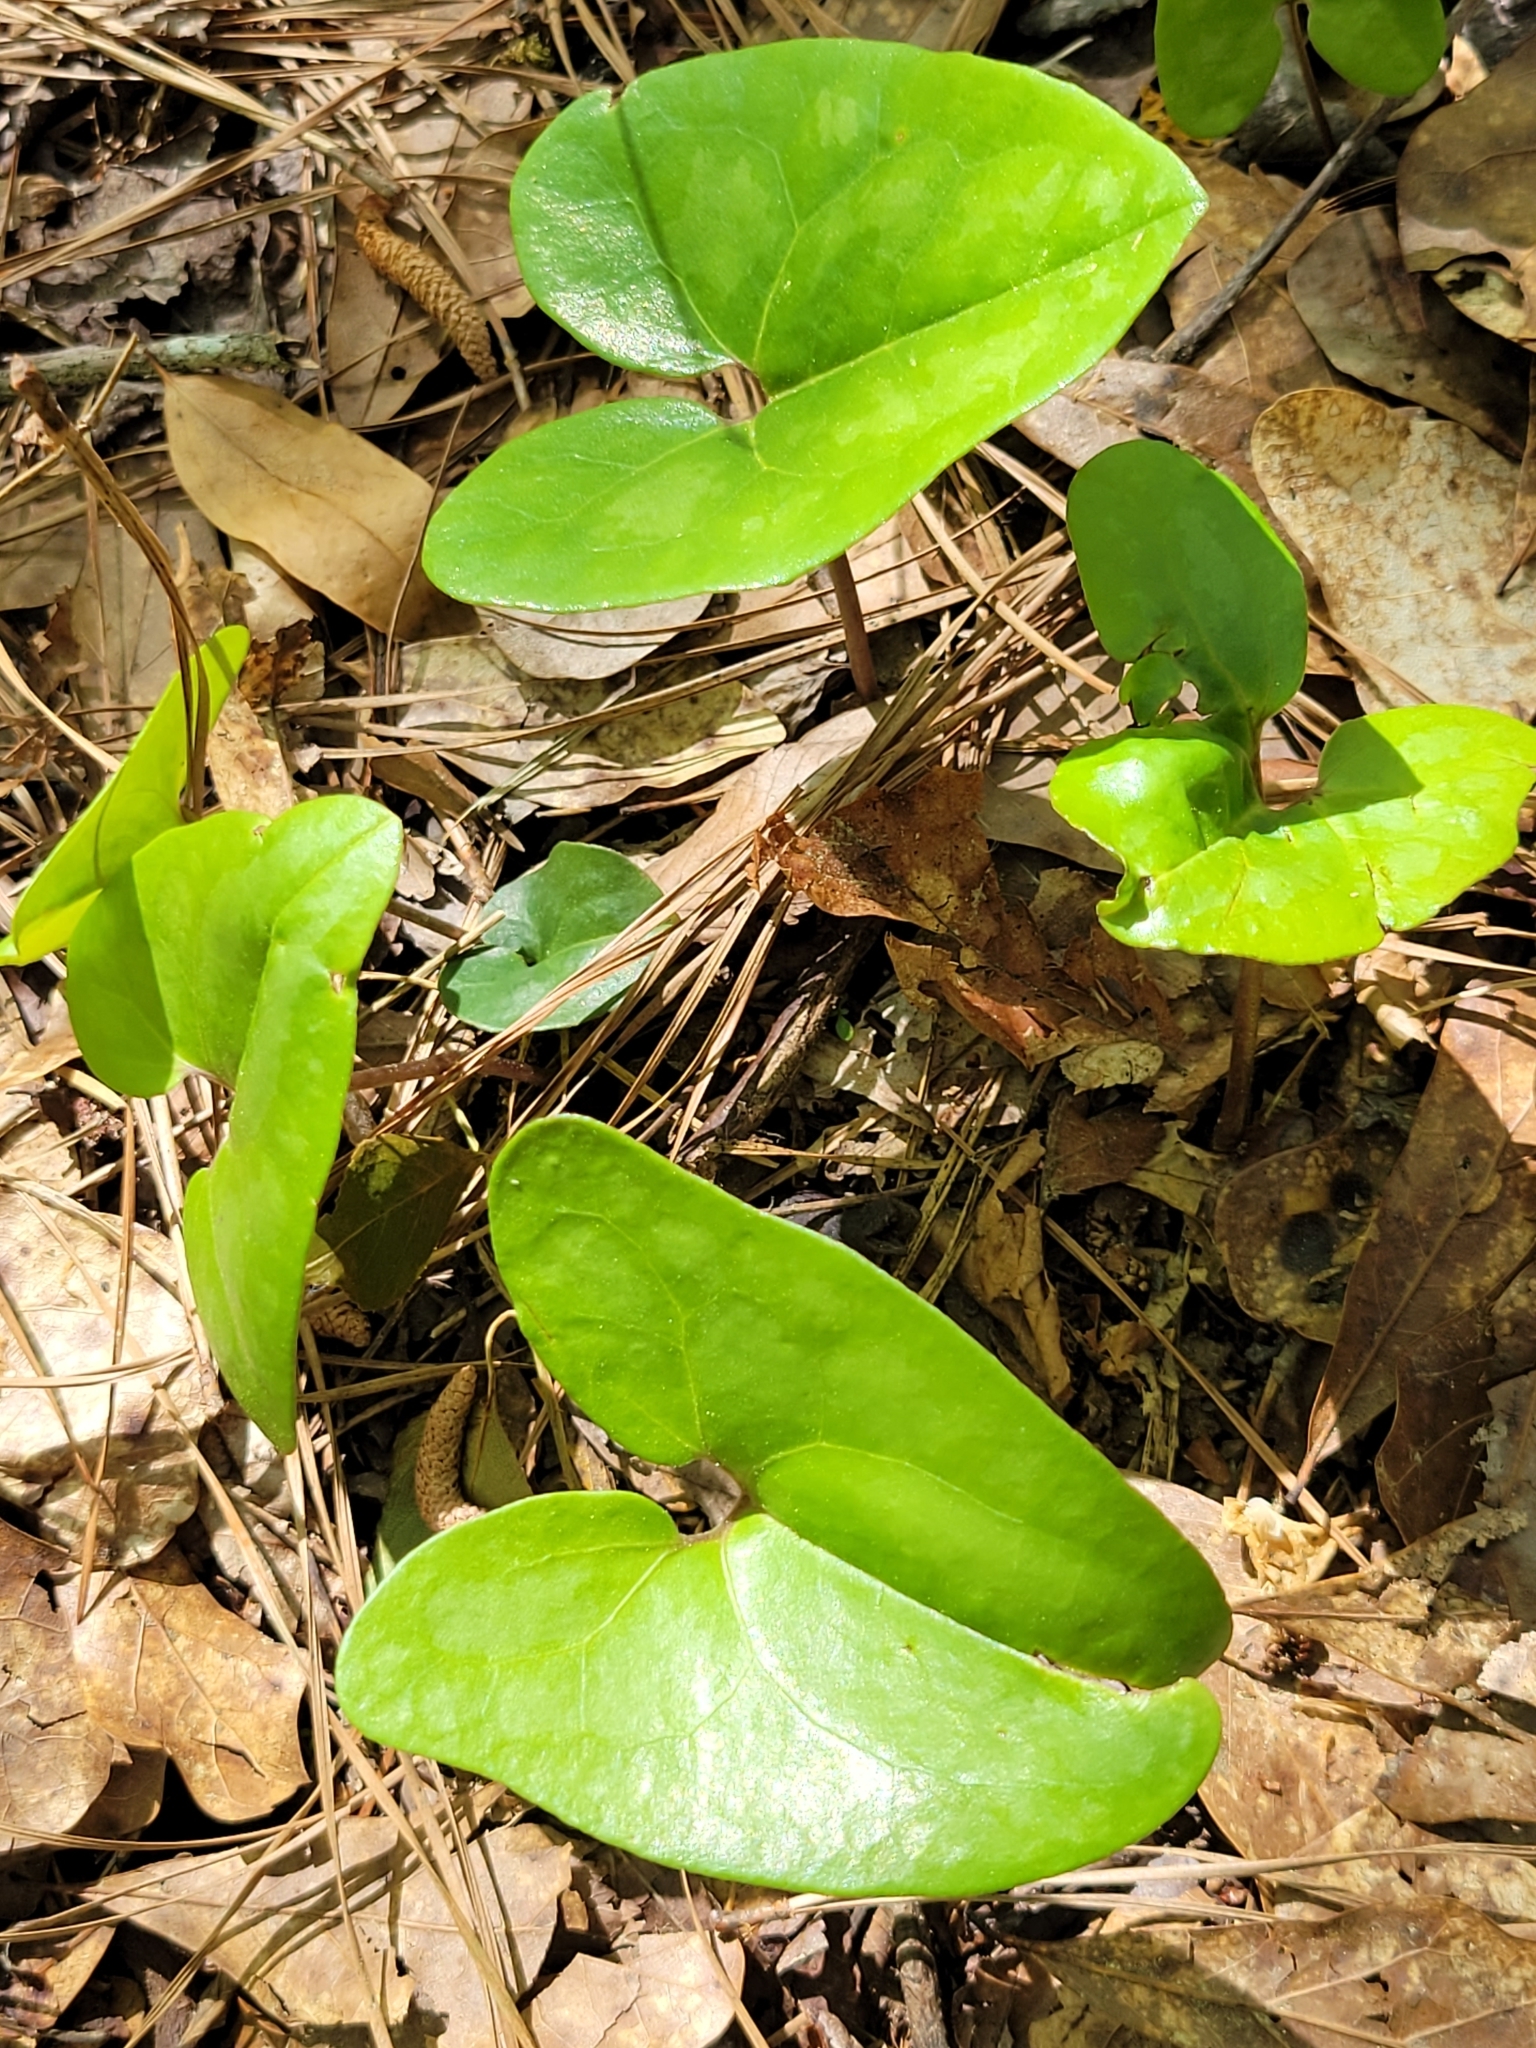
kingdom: Plantae
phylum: Tracheophyta
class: Magnoliopsida
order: Piperales
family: Aristolochiaceae
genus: Hexastylis
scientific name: Hexastylis arifolia
